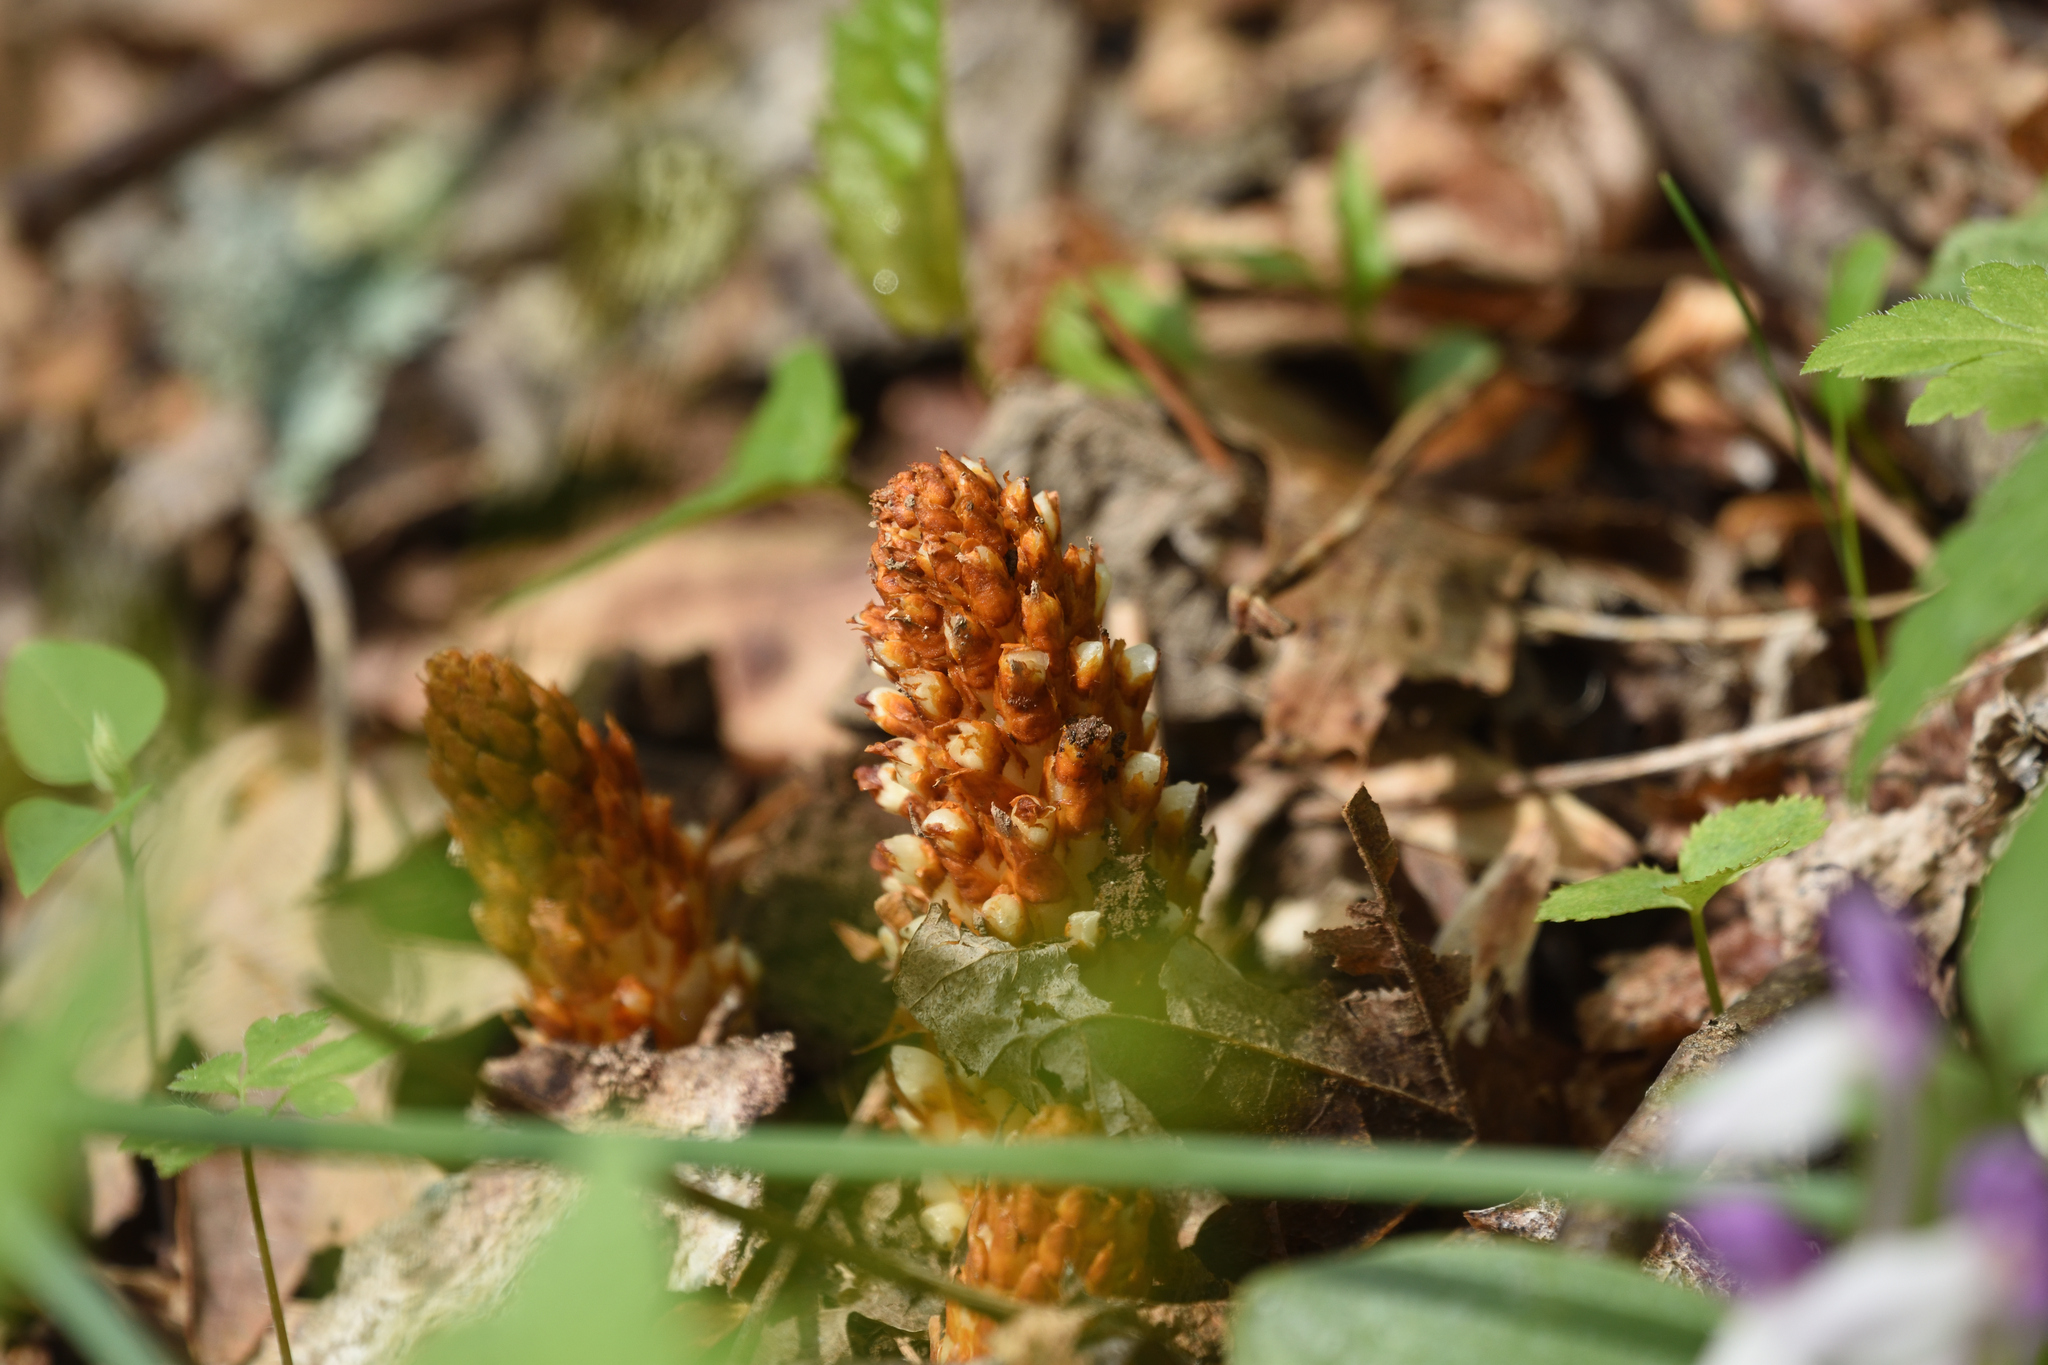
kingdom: Plantae
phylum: Tracheophyta
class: Magnoliopsida
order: Lamiales
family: Orobanchaceae
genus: Conopholis
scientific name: Conopholis americana
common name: American cancer-root
